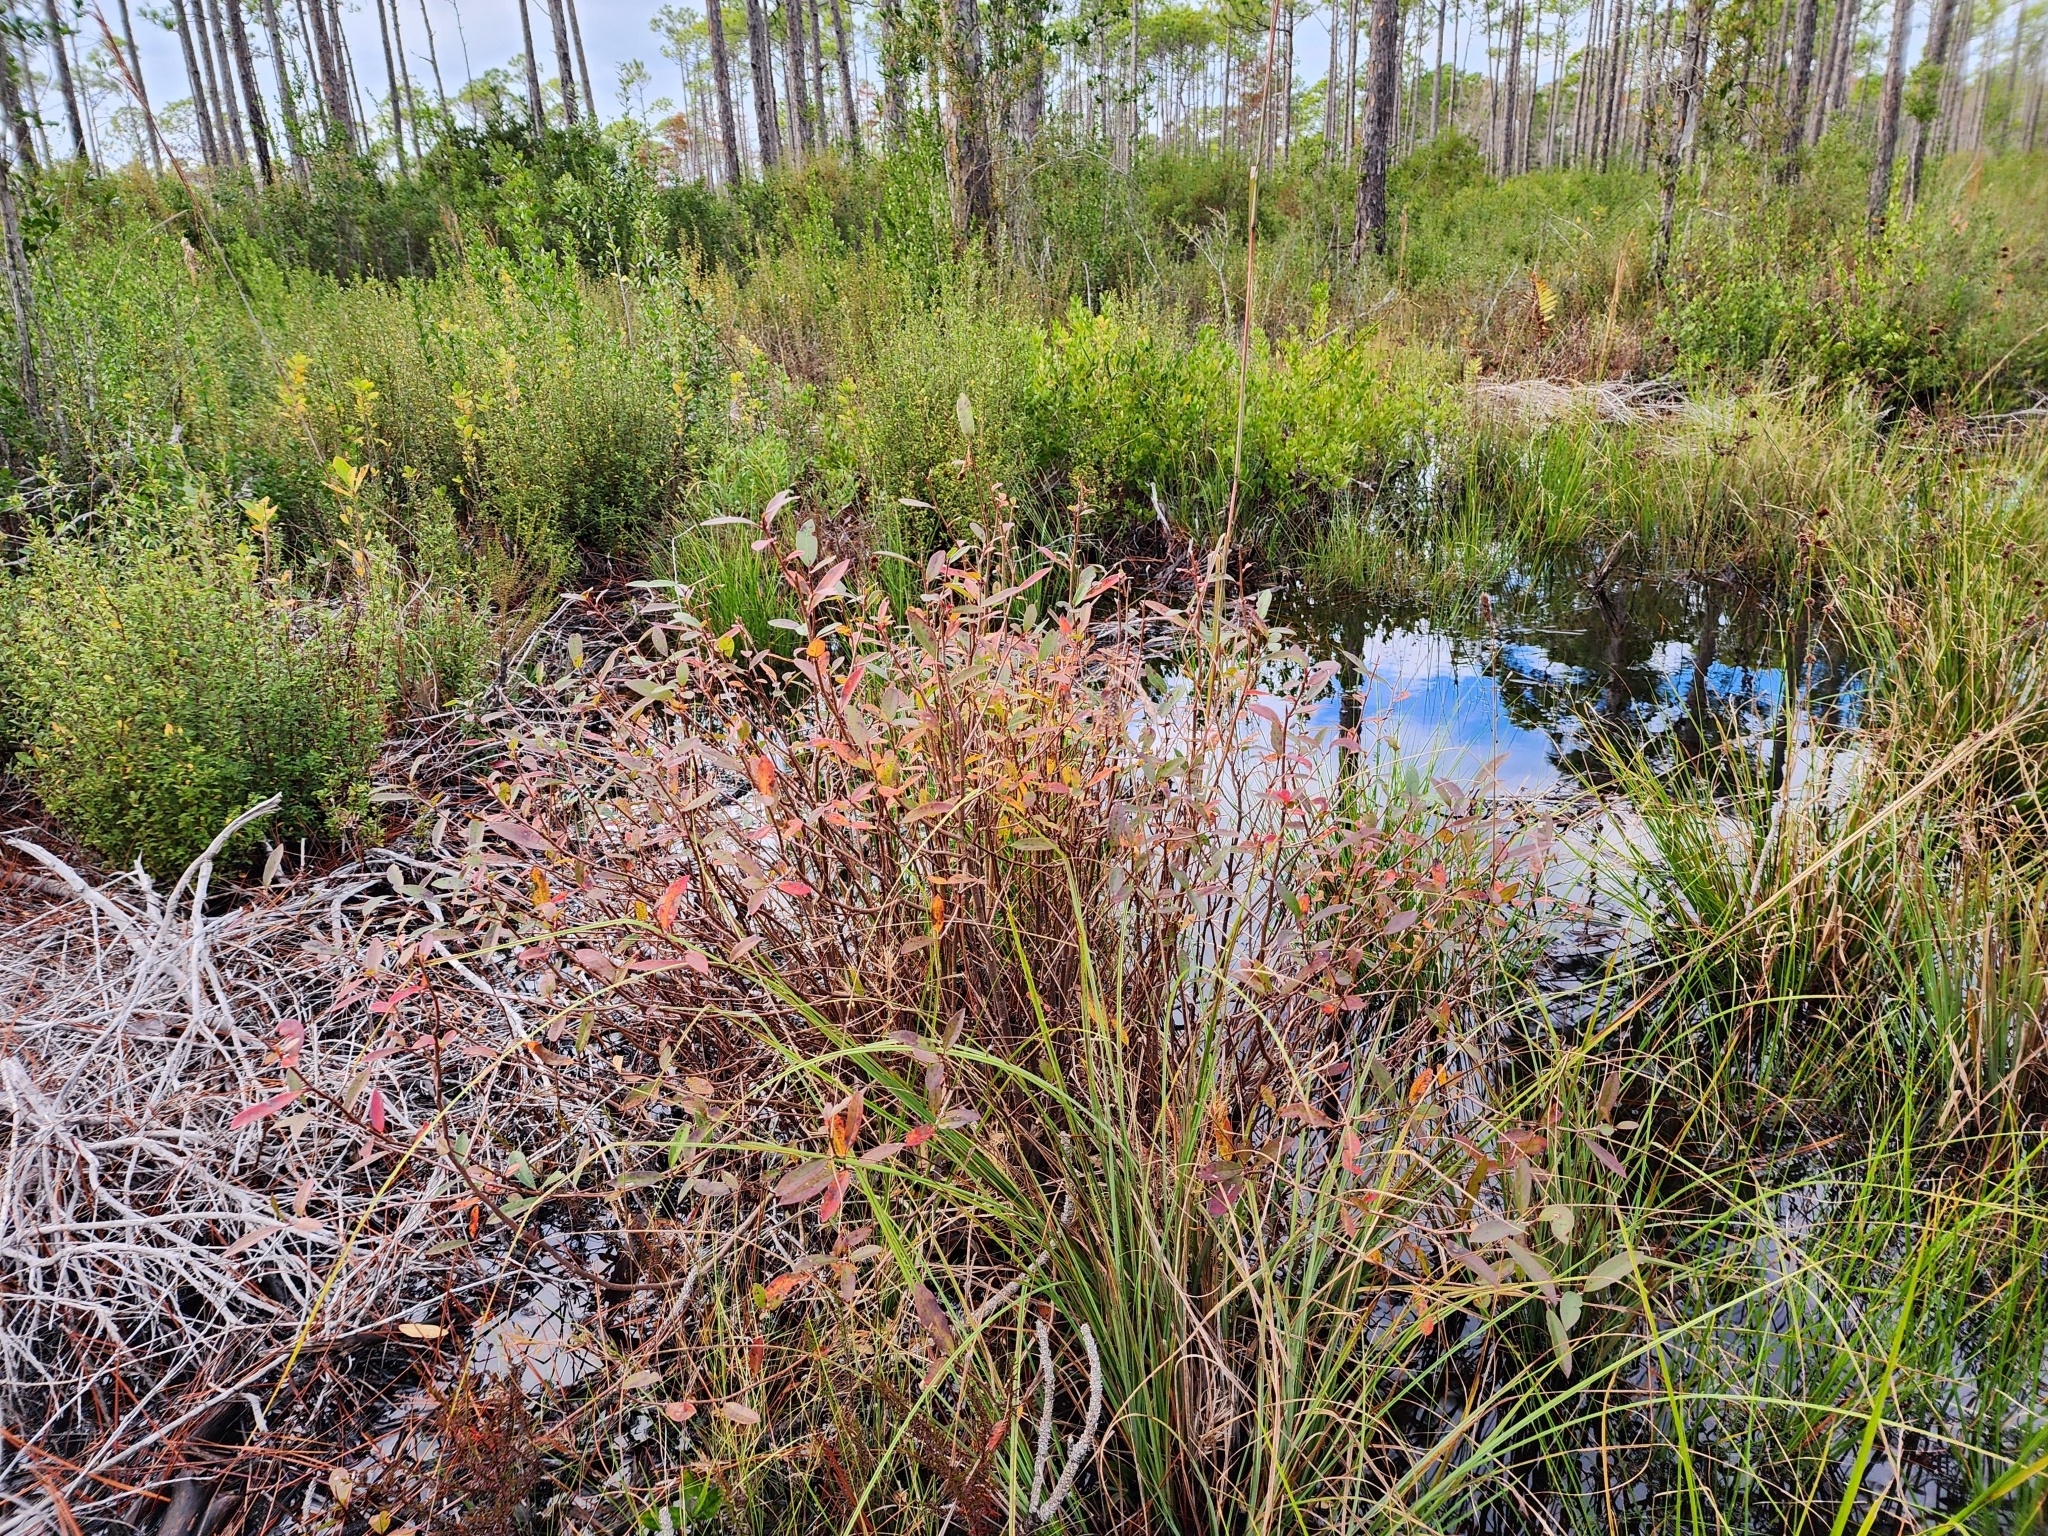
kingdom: Plantae
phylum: Tracheophyta
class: Magnoliopsida
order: Cornales
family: Nyssaceae
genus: Nyssa
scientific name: Nyssa biflora
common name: Swamp blackgum
